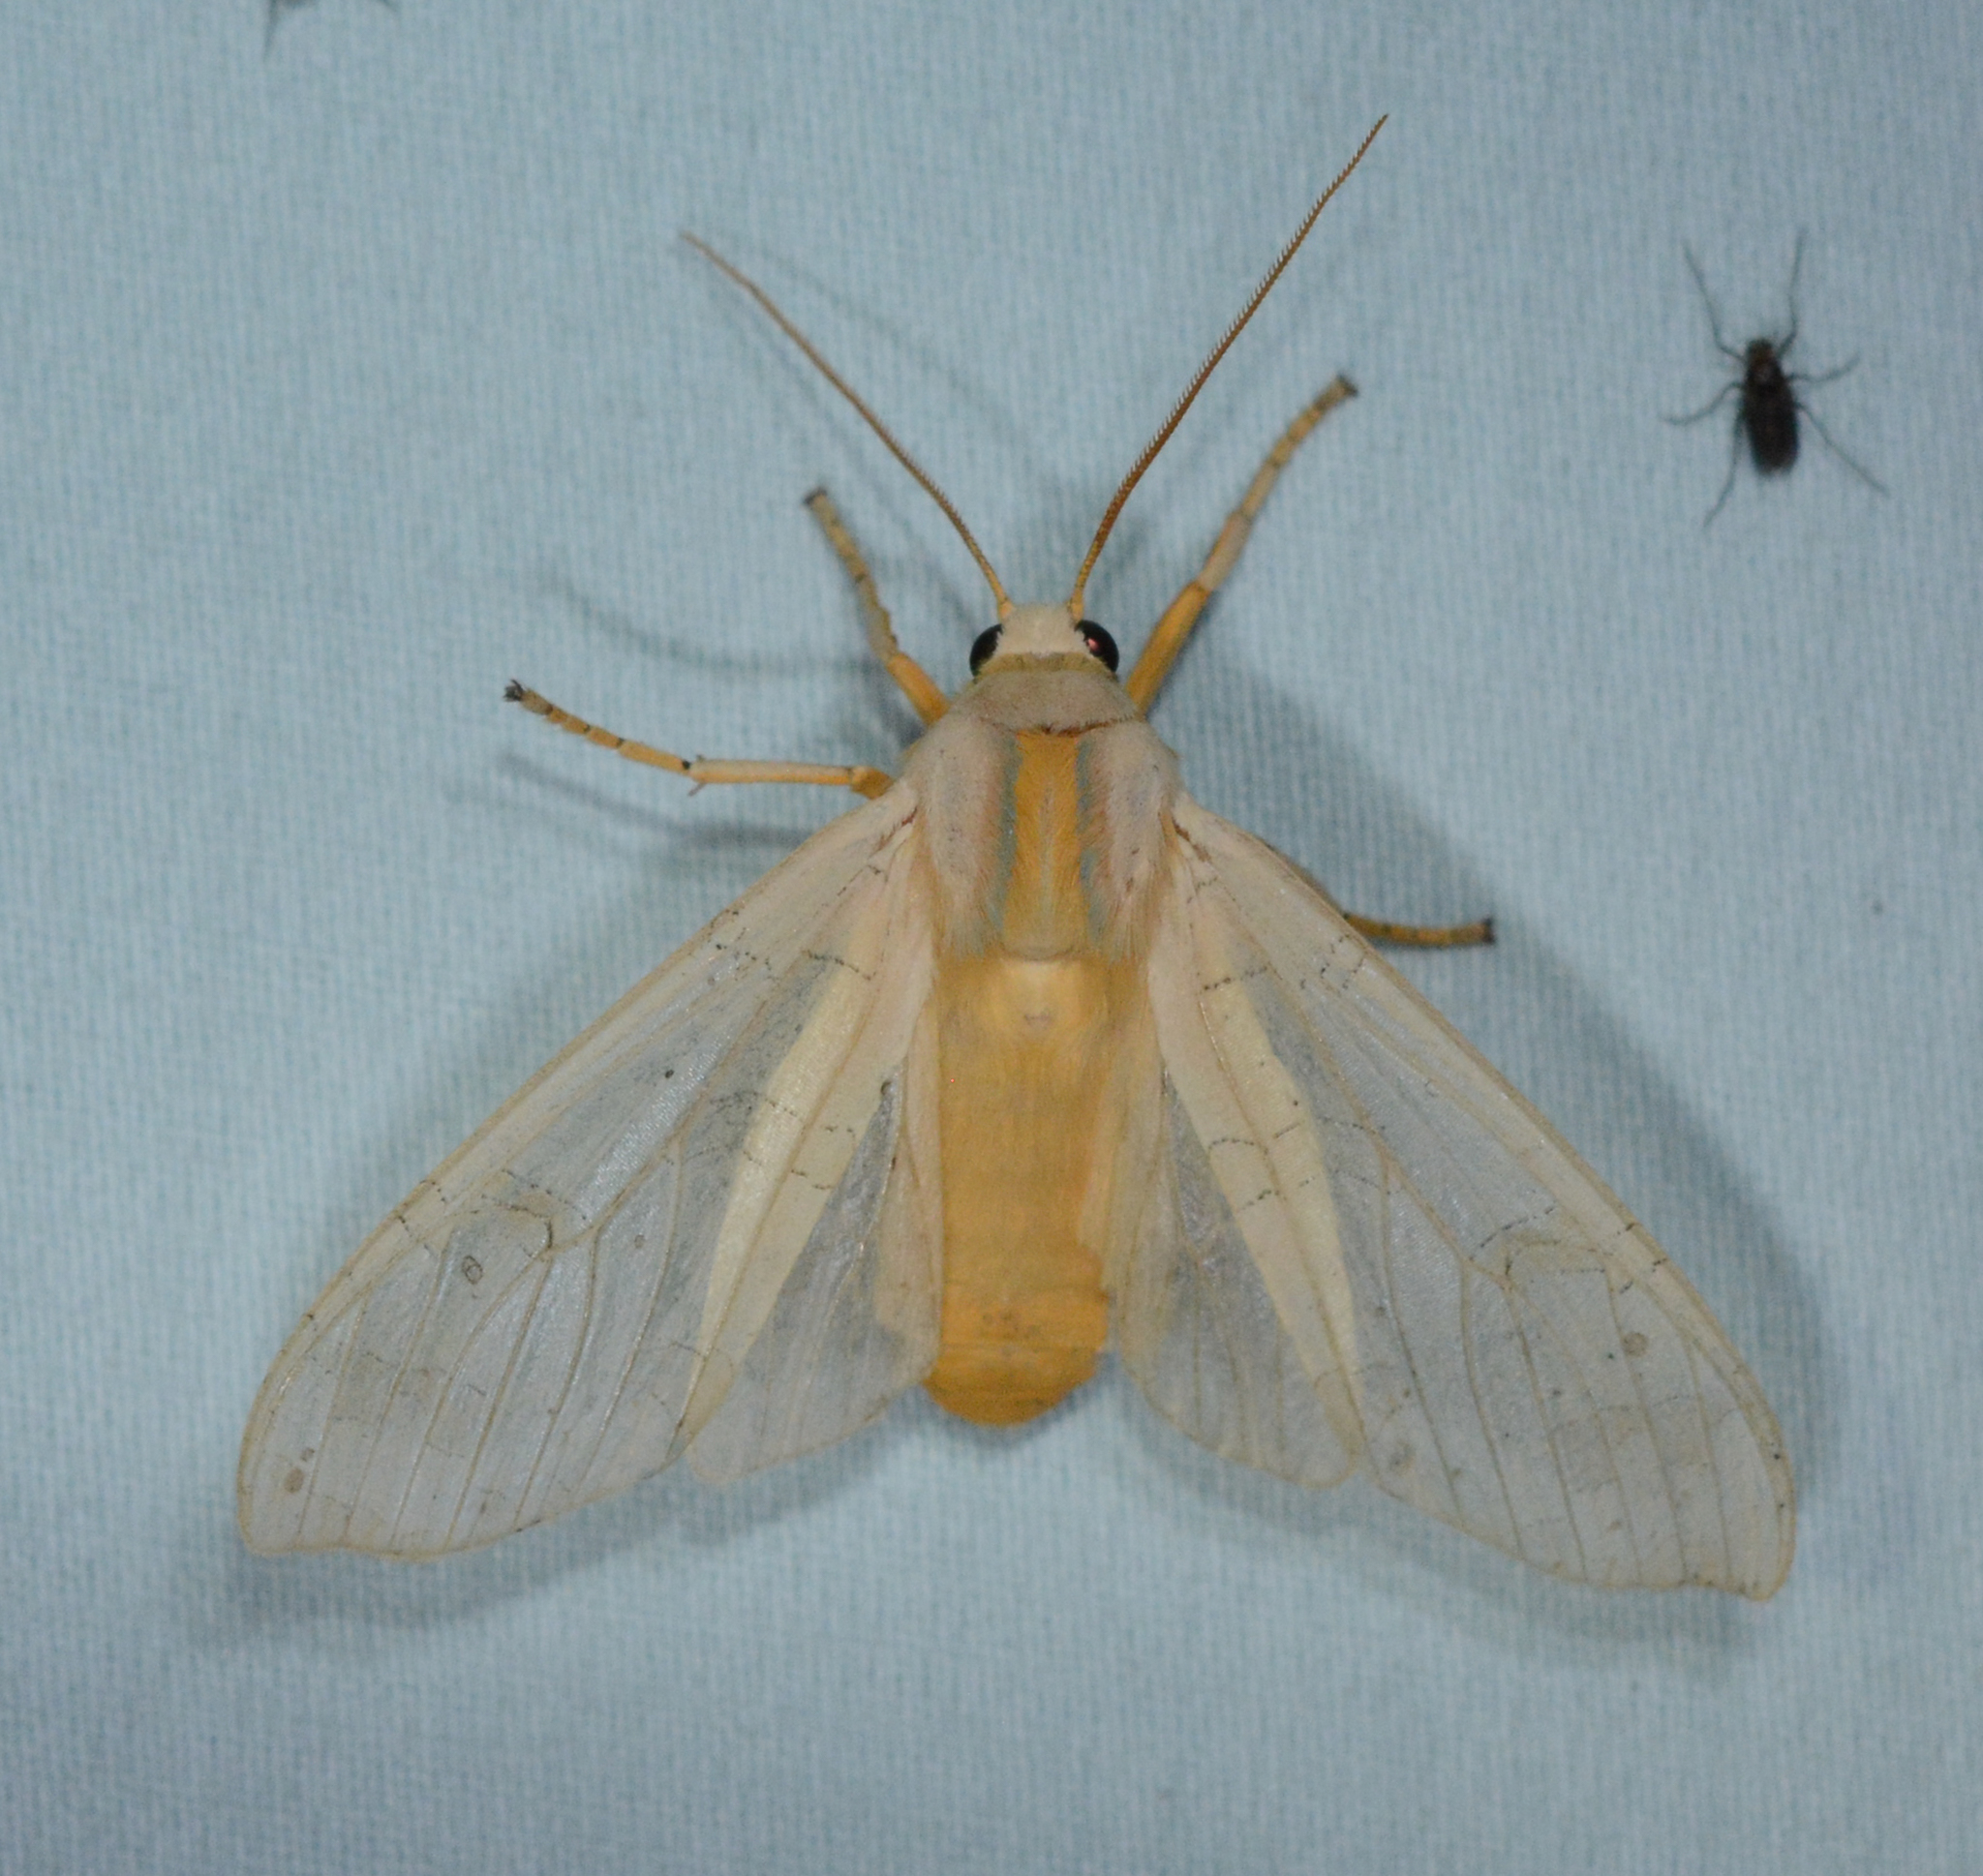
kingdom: Animalia
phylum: Arthropoda
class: Insecta
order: Lepidoptera
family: Erebidae
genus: Halysidota
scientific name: Halysidota
